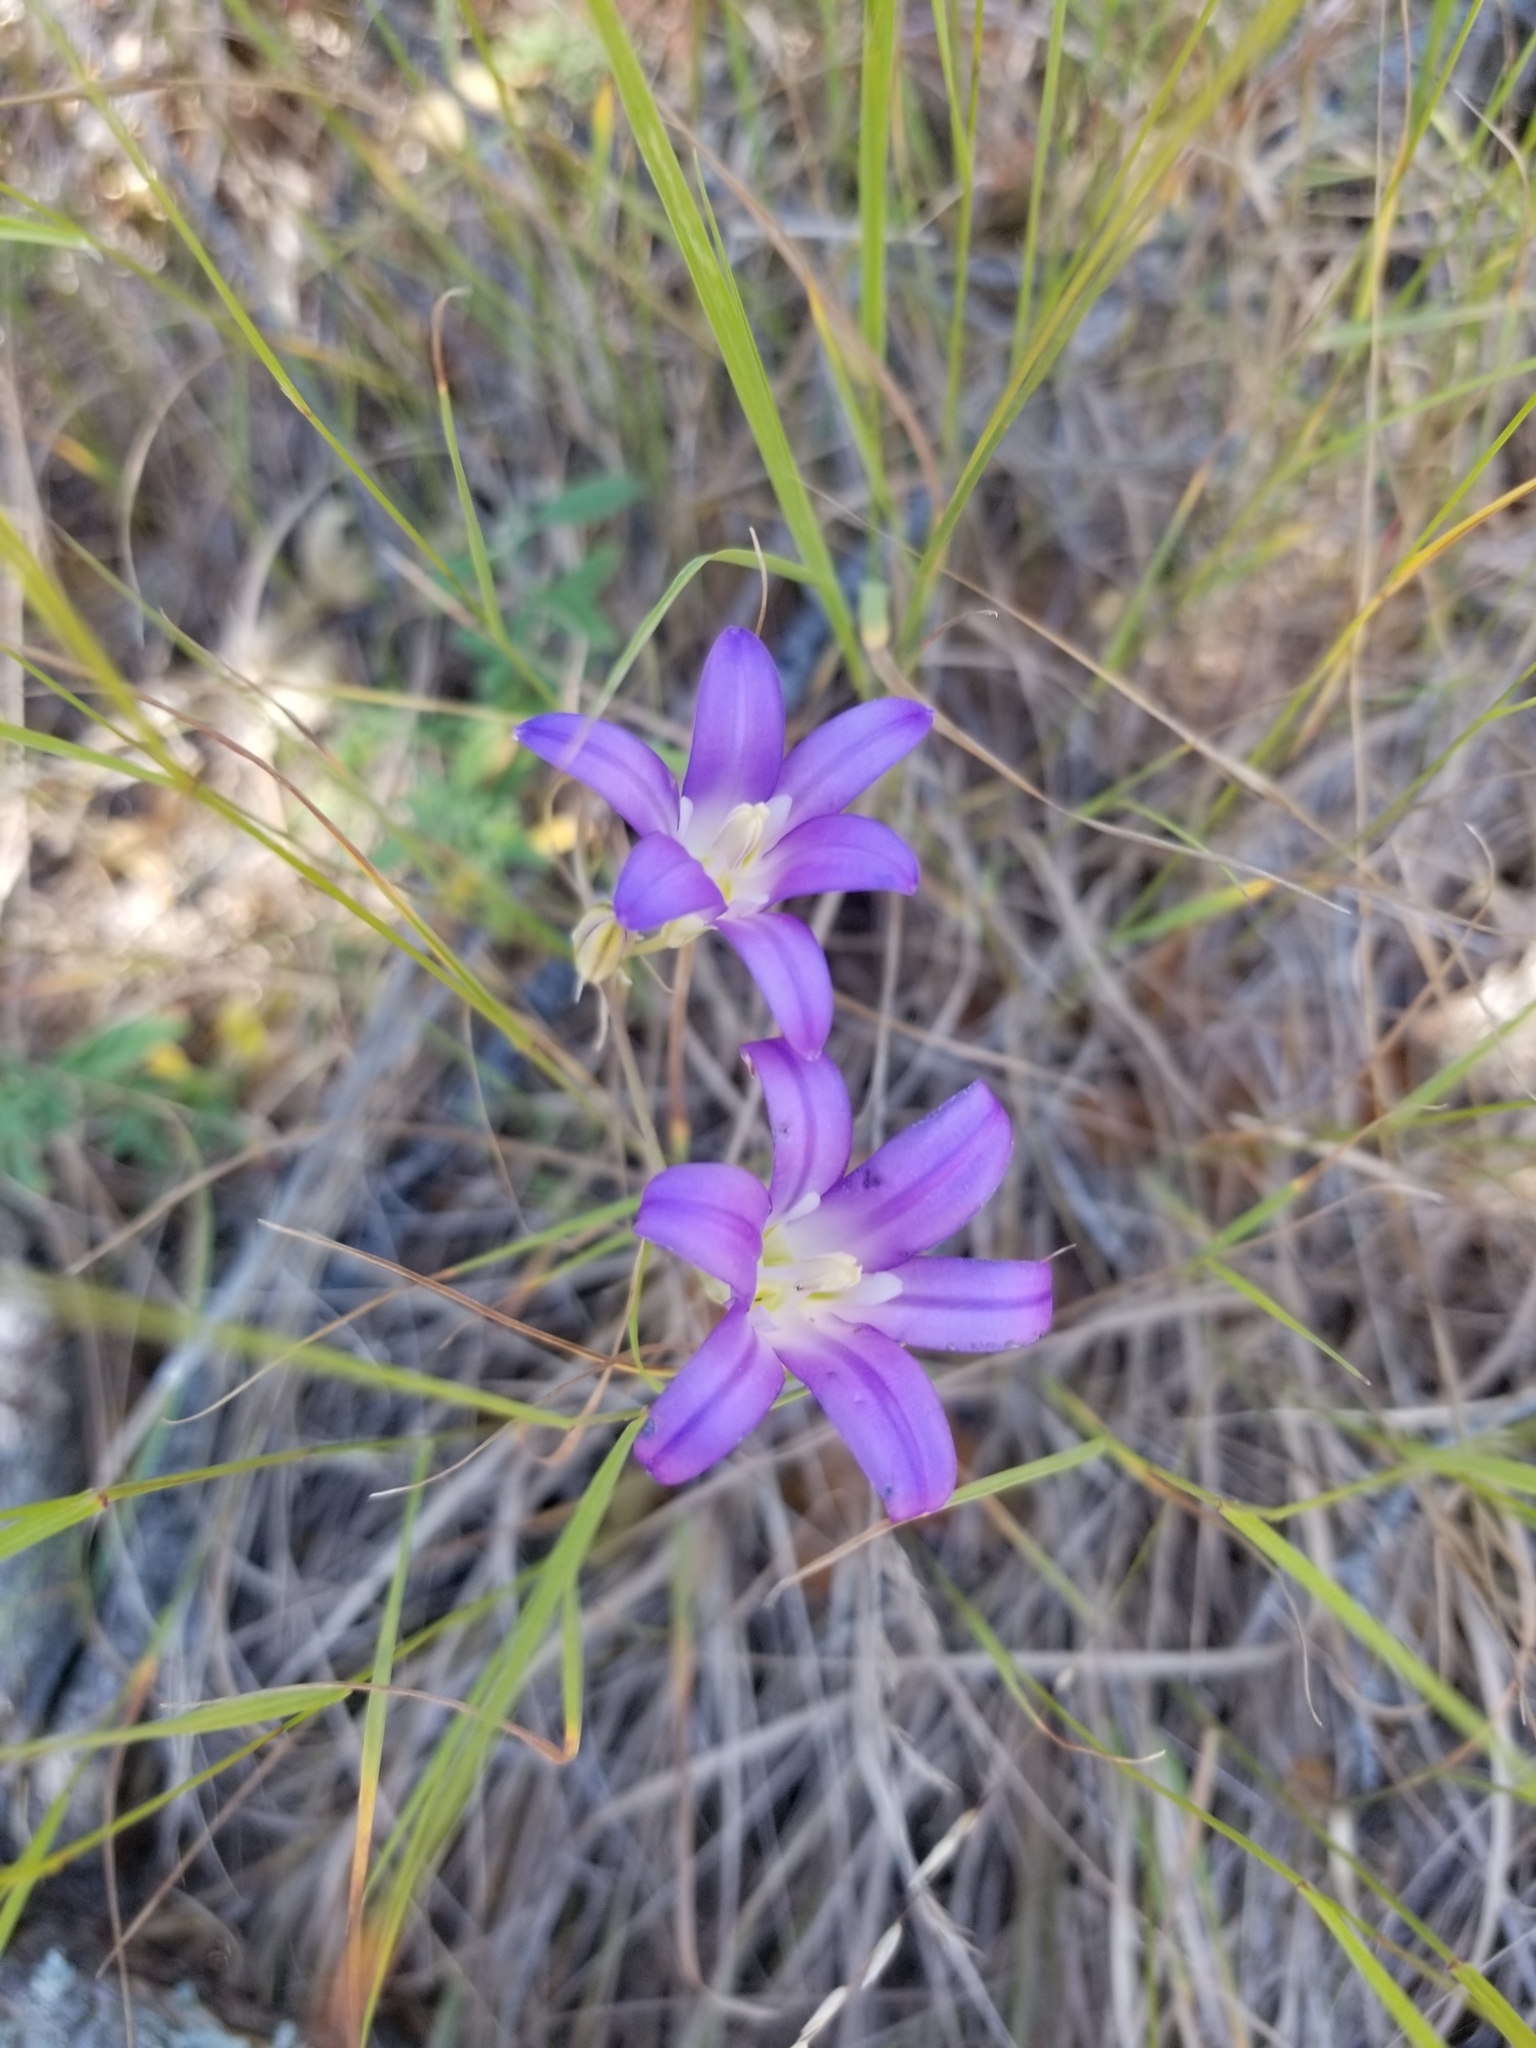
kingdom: Plantae
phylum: Tracheophyta
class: Liliopsida
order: Asparagales
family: Asparagaceae
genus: Brodiaea
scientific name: Brodiaea elegans
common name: Elegant cluster-lily
